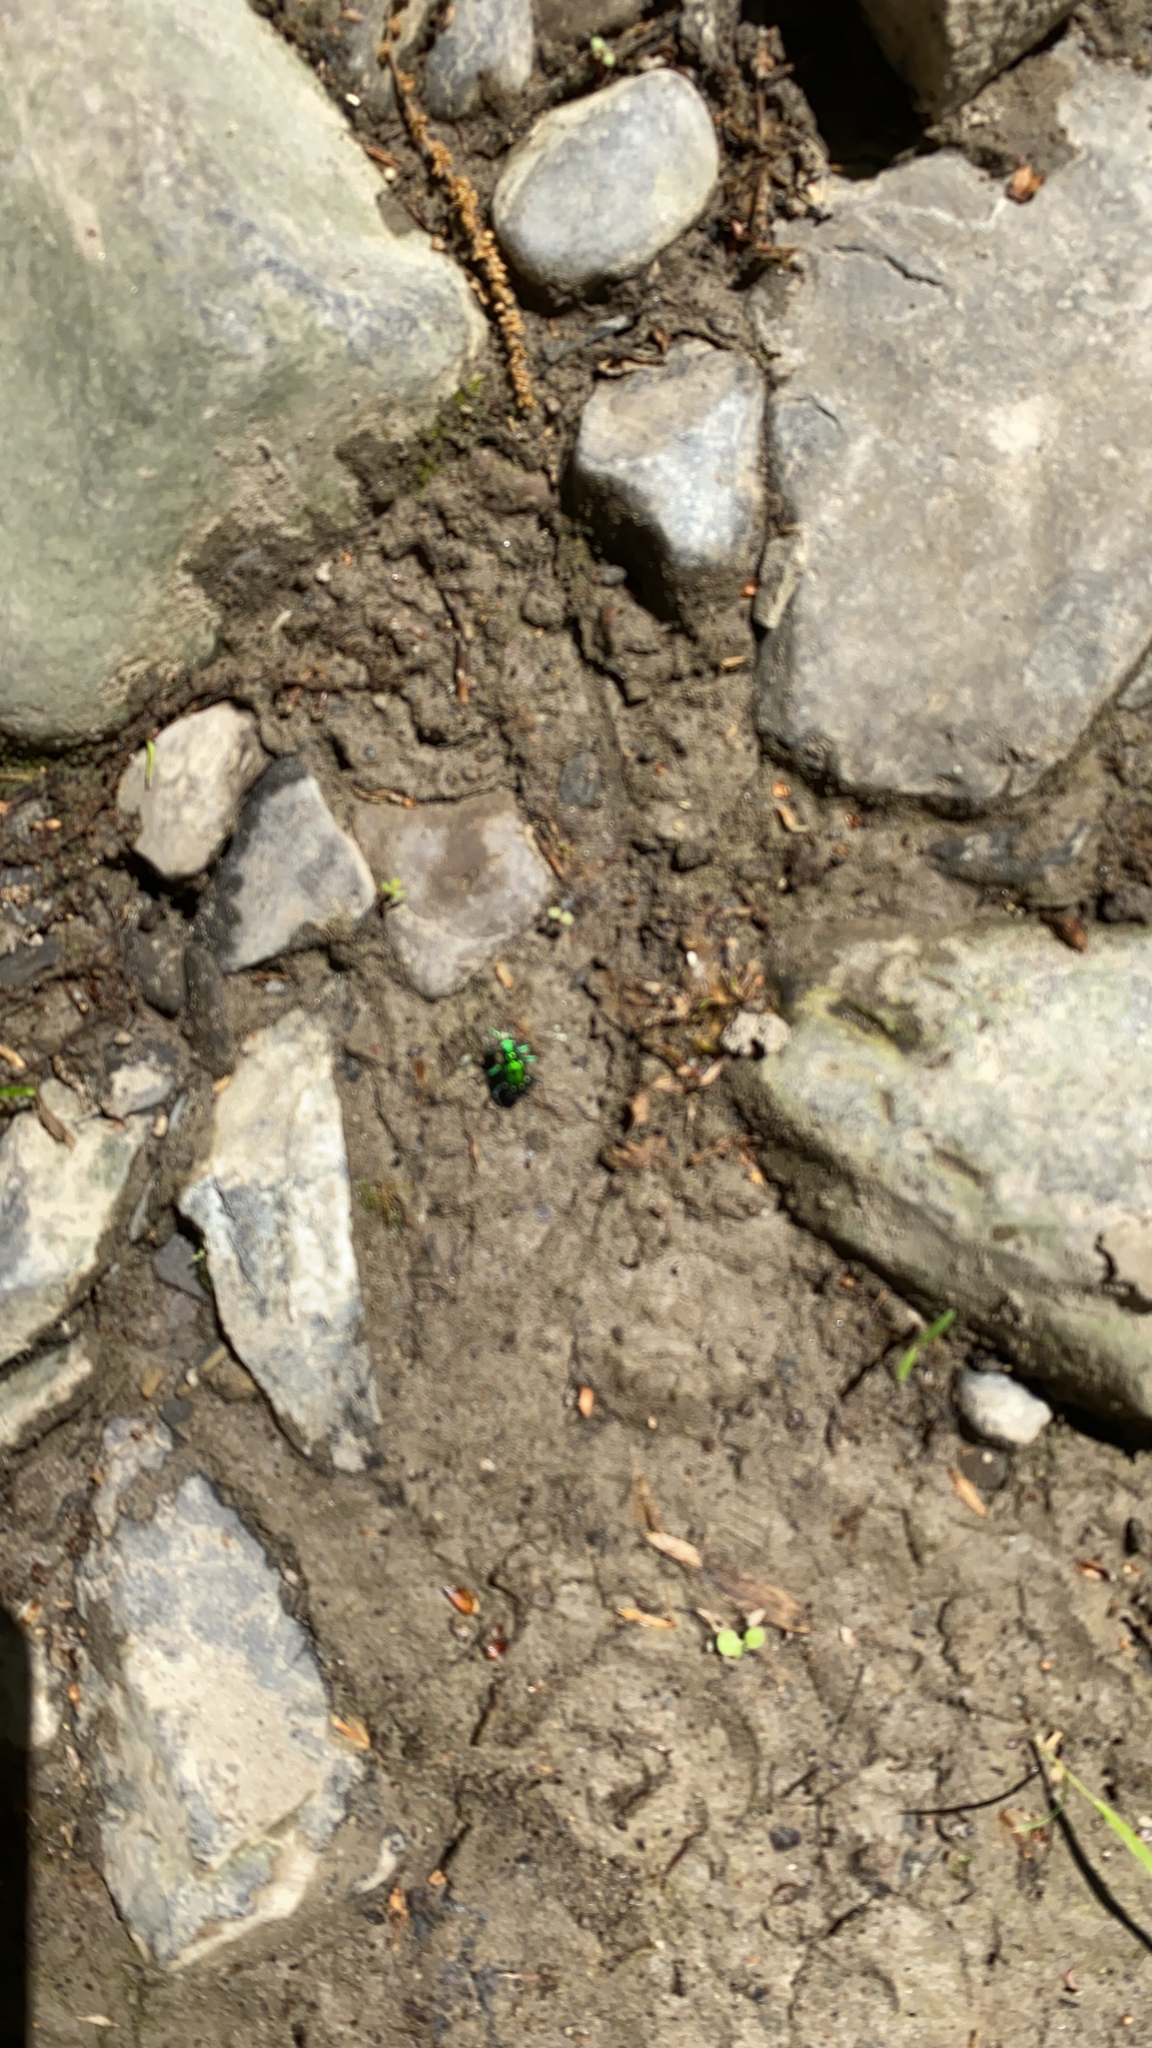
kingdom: Animalia
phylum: Arthropoda
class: Insecta
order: Coleoptera
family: Carabidae
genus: Cicindela
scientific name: Cicindela sexguttata
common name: Six-spotted tiger beetle
